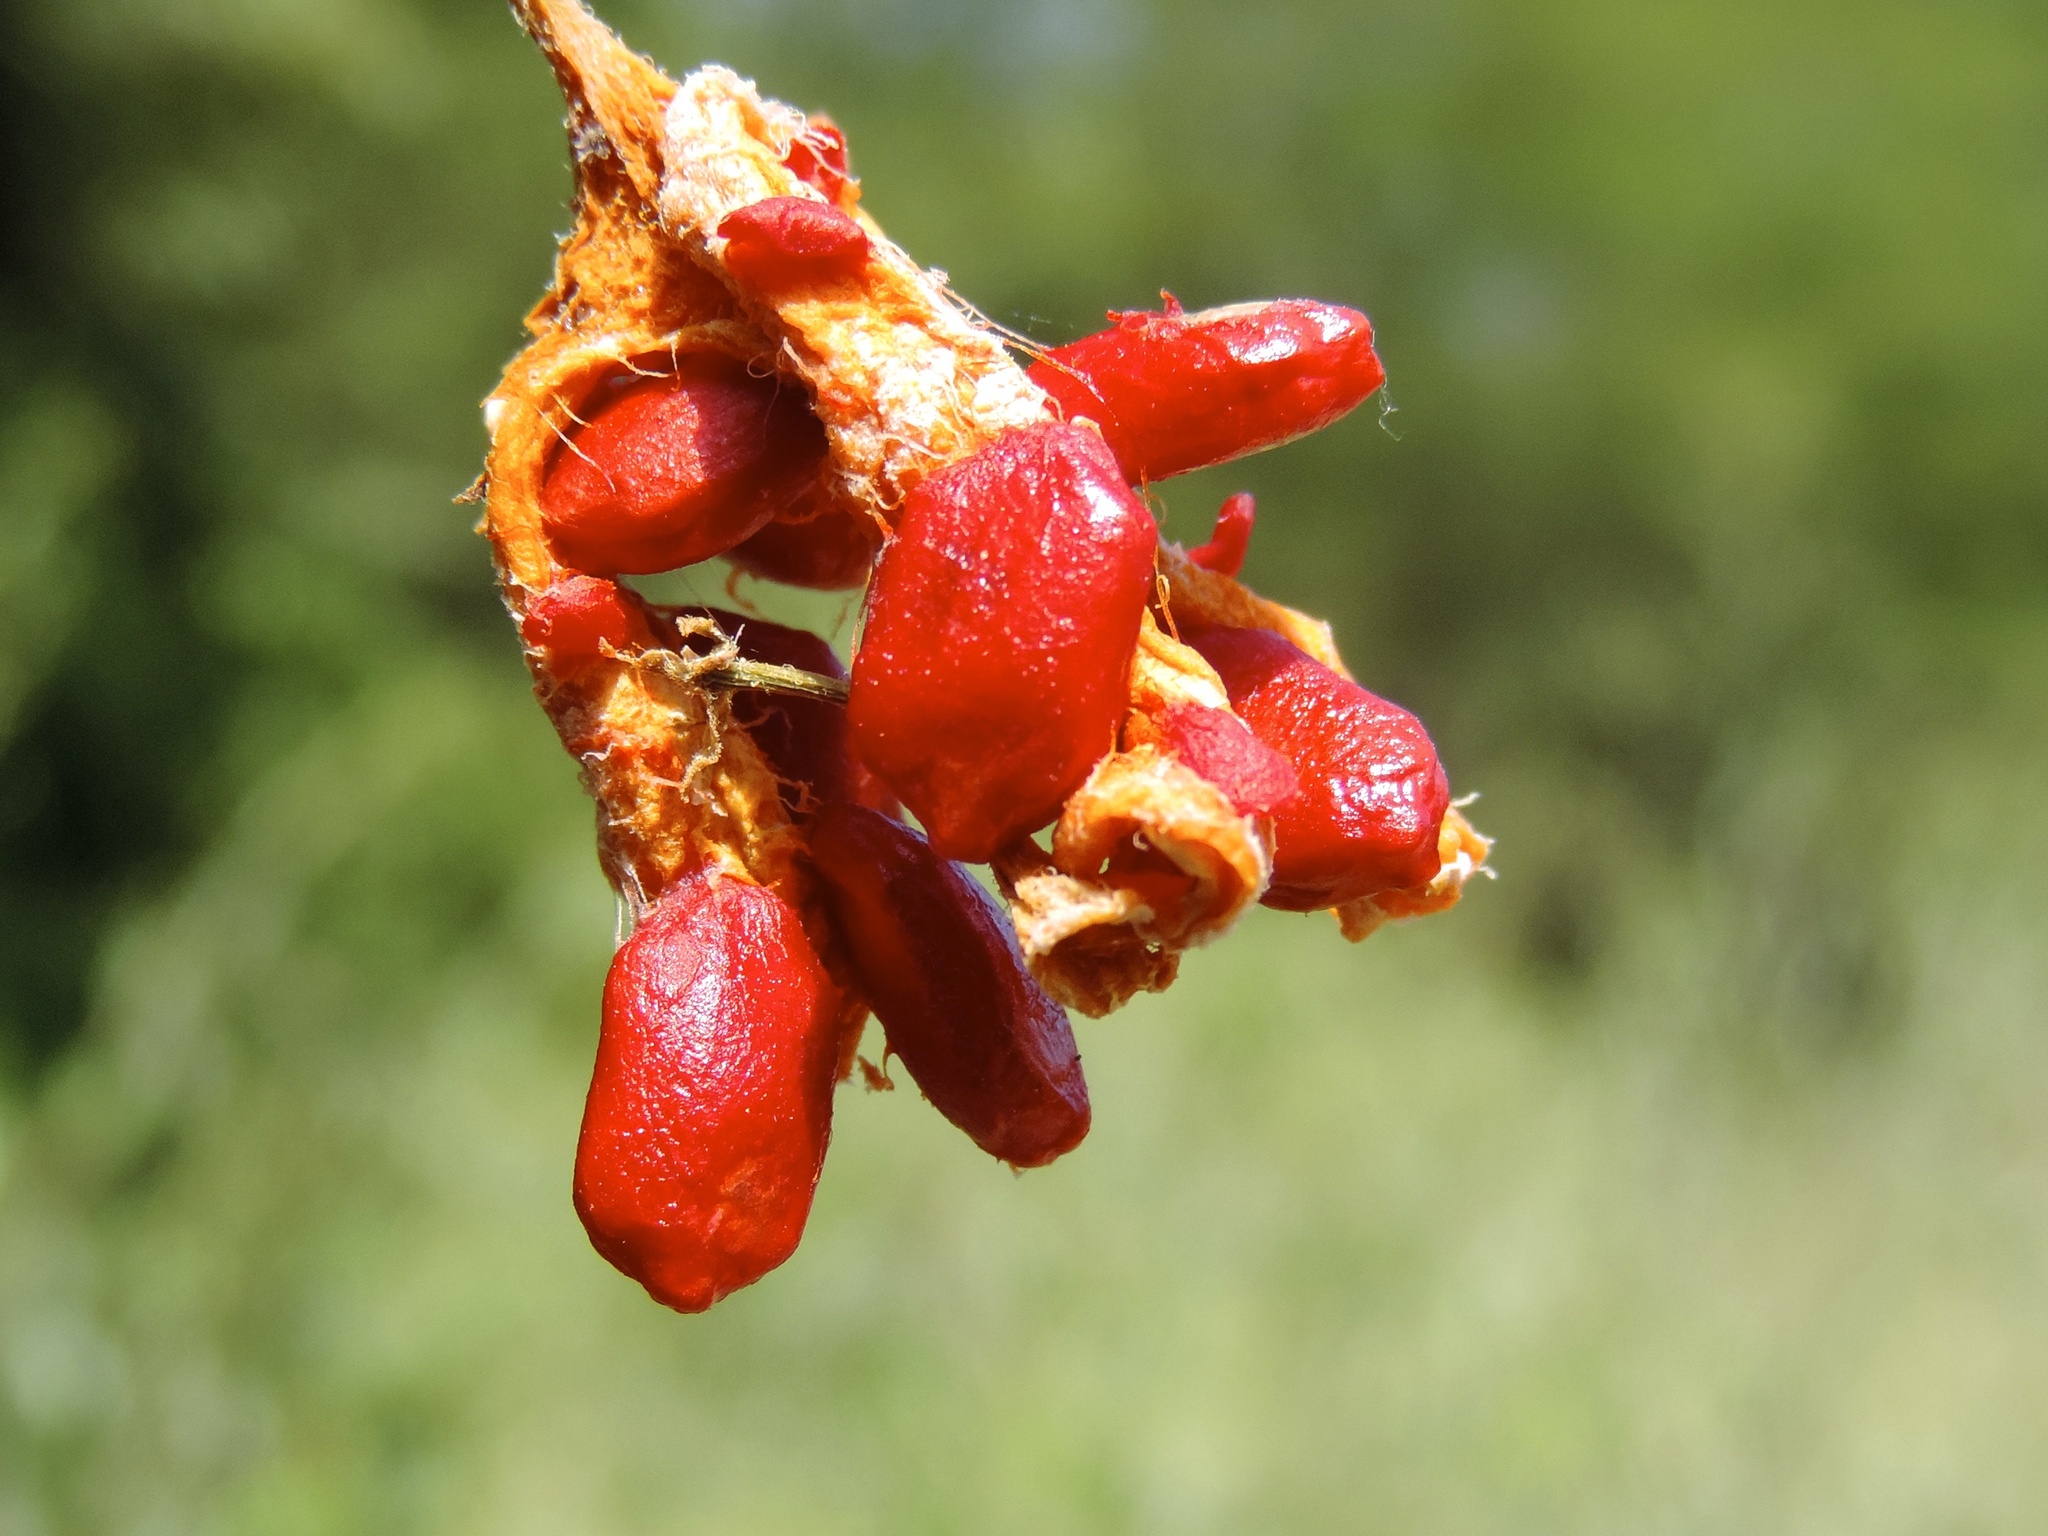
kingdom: Plantae
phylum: Tracheophyta
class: Magnoliopsida
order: Cucurbitales
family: Cucurbitaceae
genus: Momordica
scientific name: Momordica charantia
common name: Balsampear
